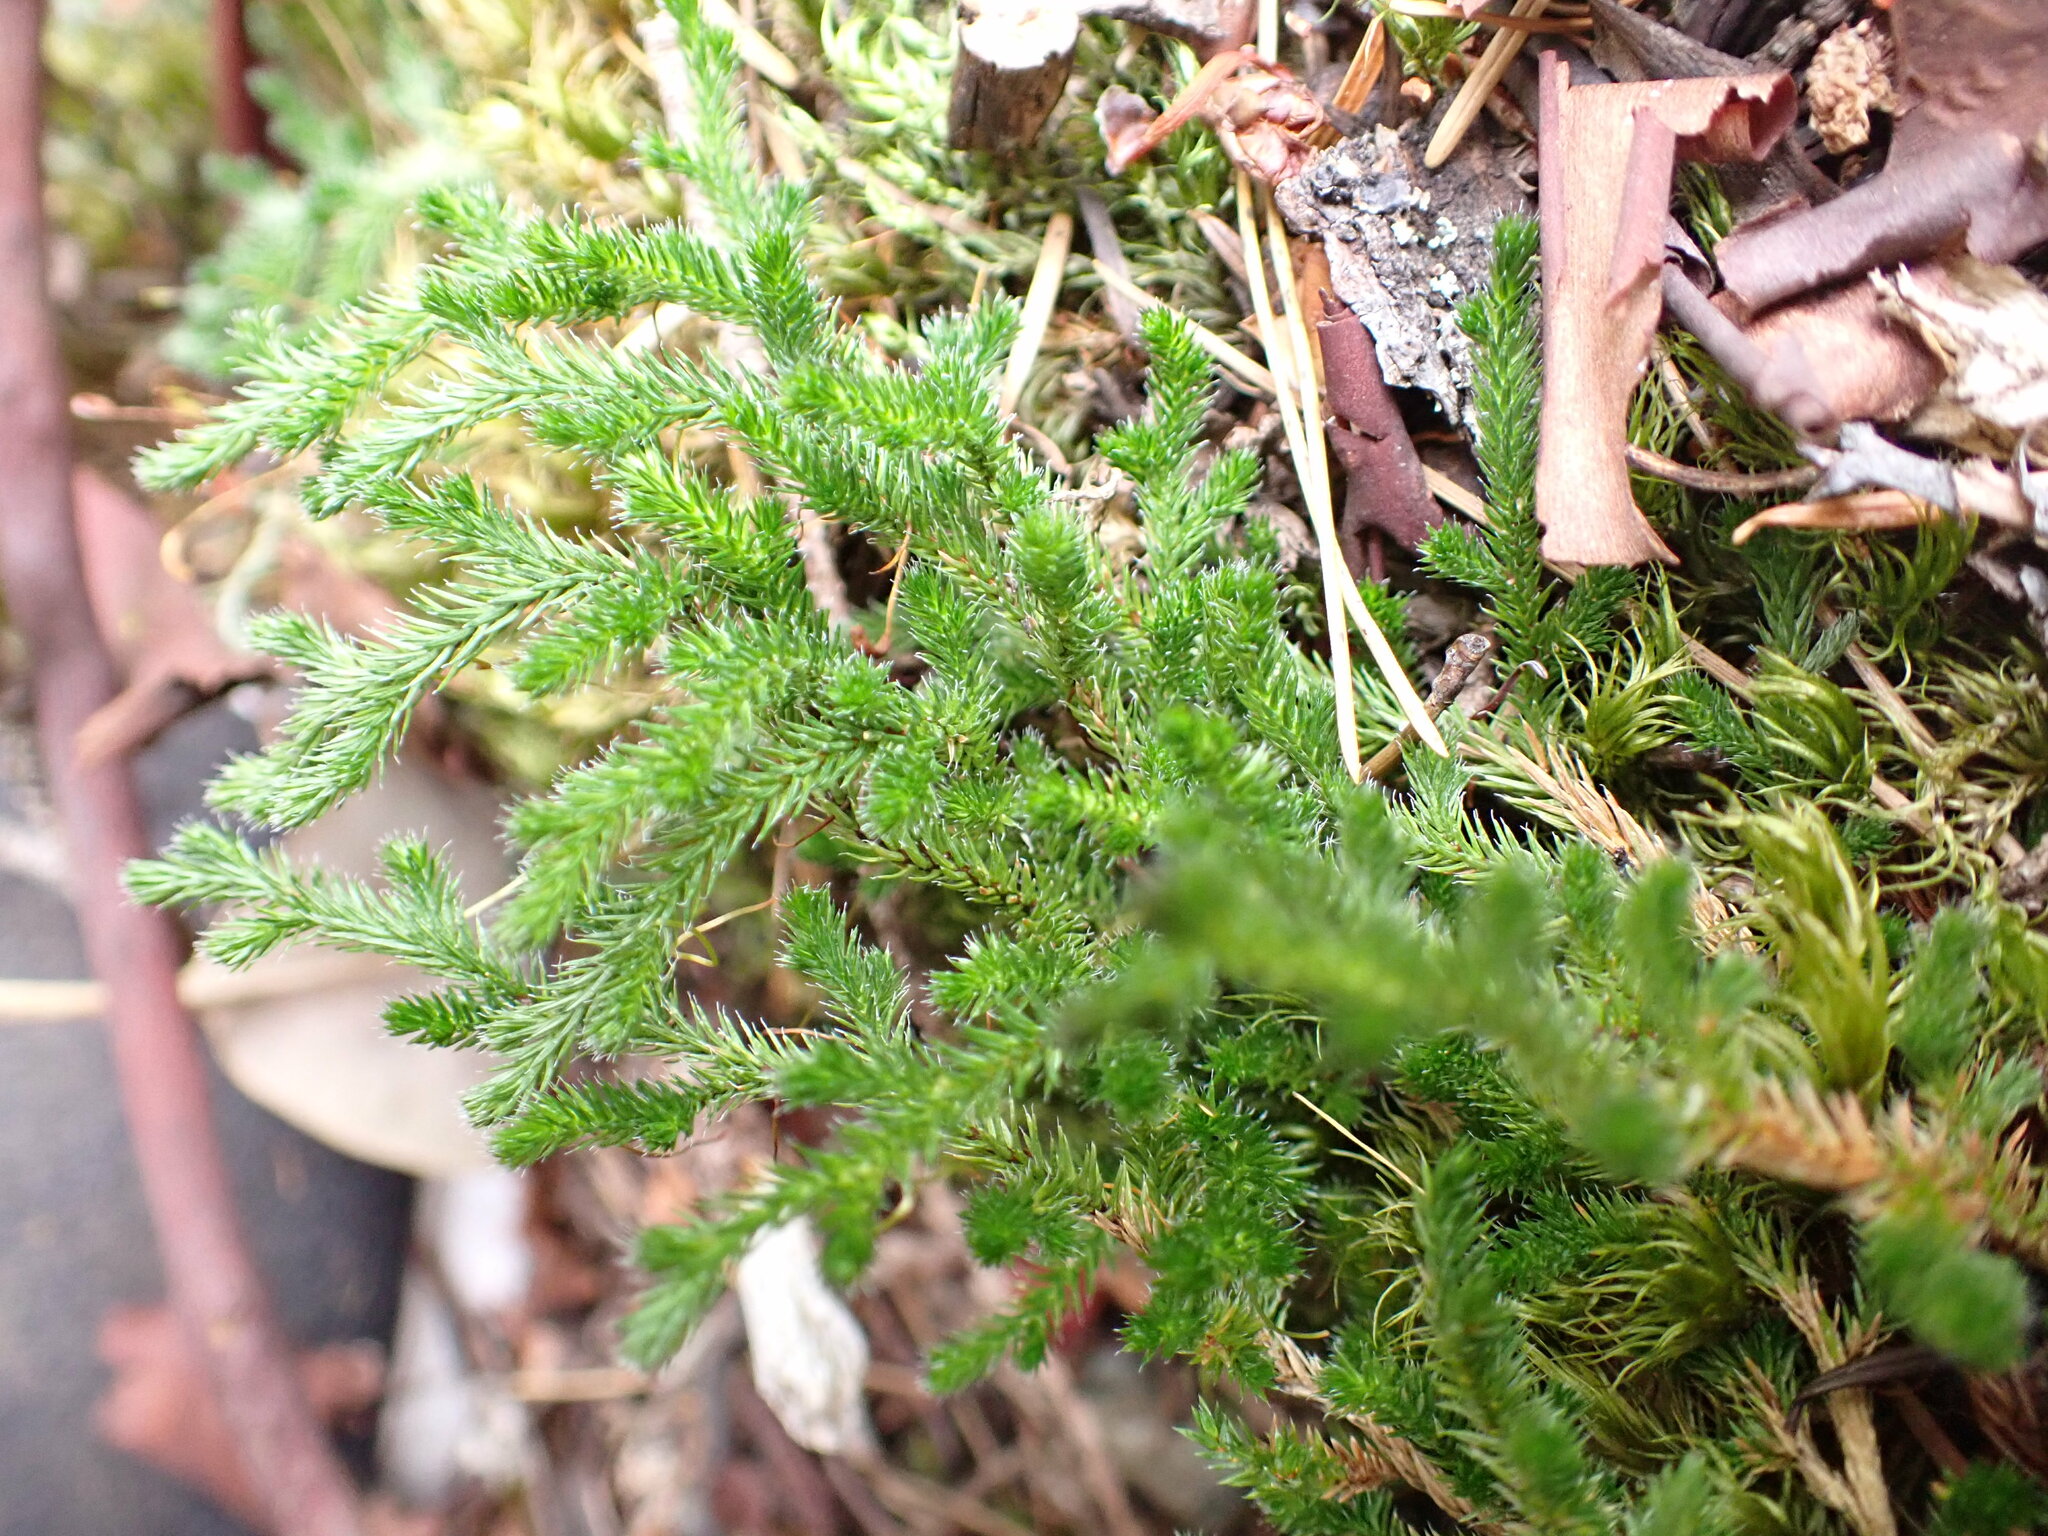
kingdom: Plantae
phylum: Tracheophyta
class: Lycopodiopsida
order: Selaginellales
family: Selaginellaceae
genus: Selaginella
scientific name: Selaginella wallacei
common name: Wallace's selaginella
